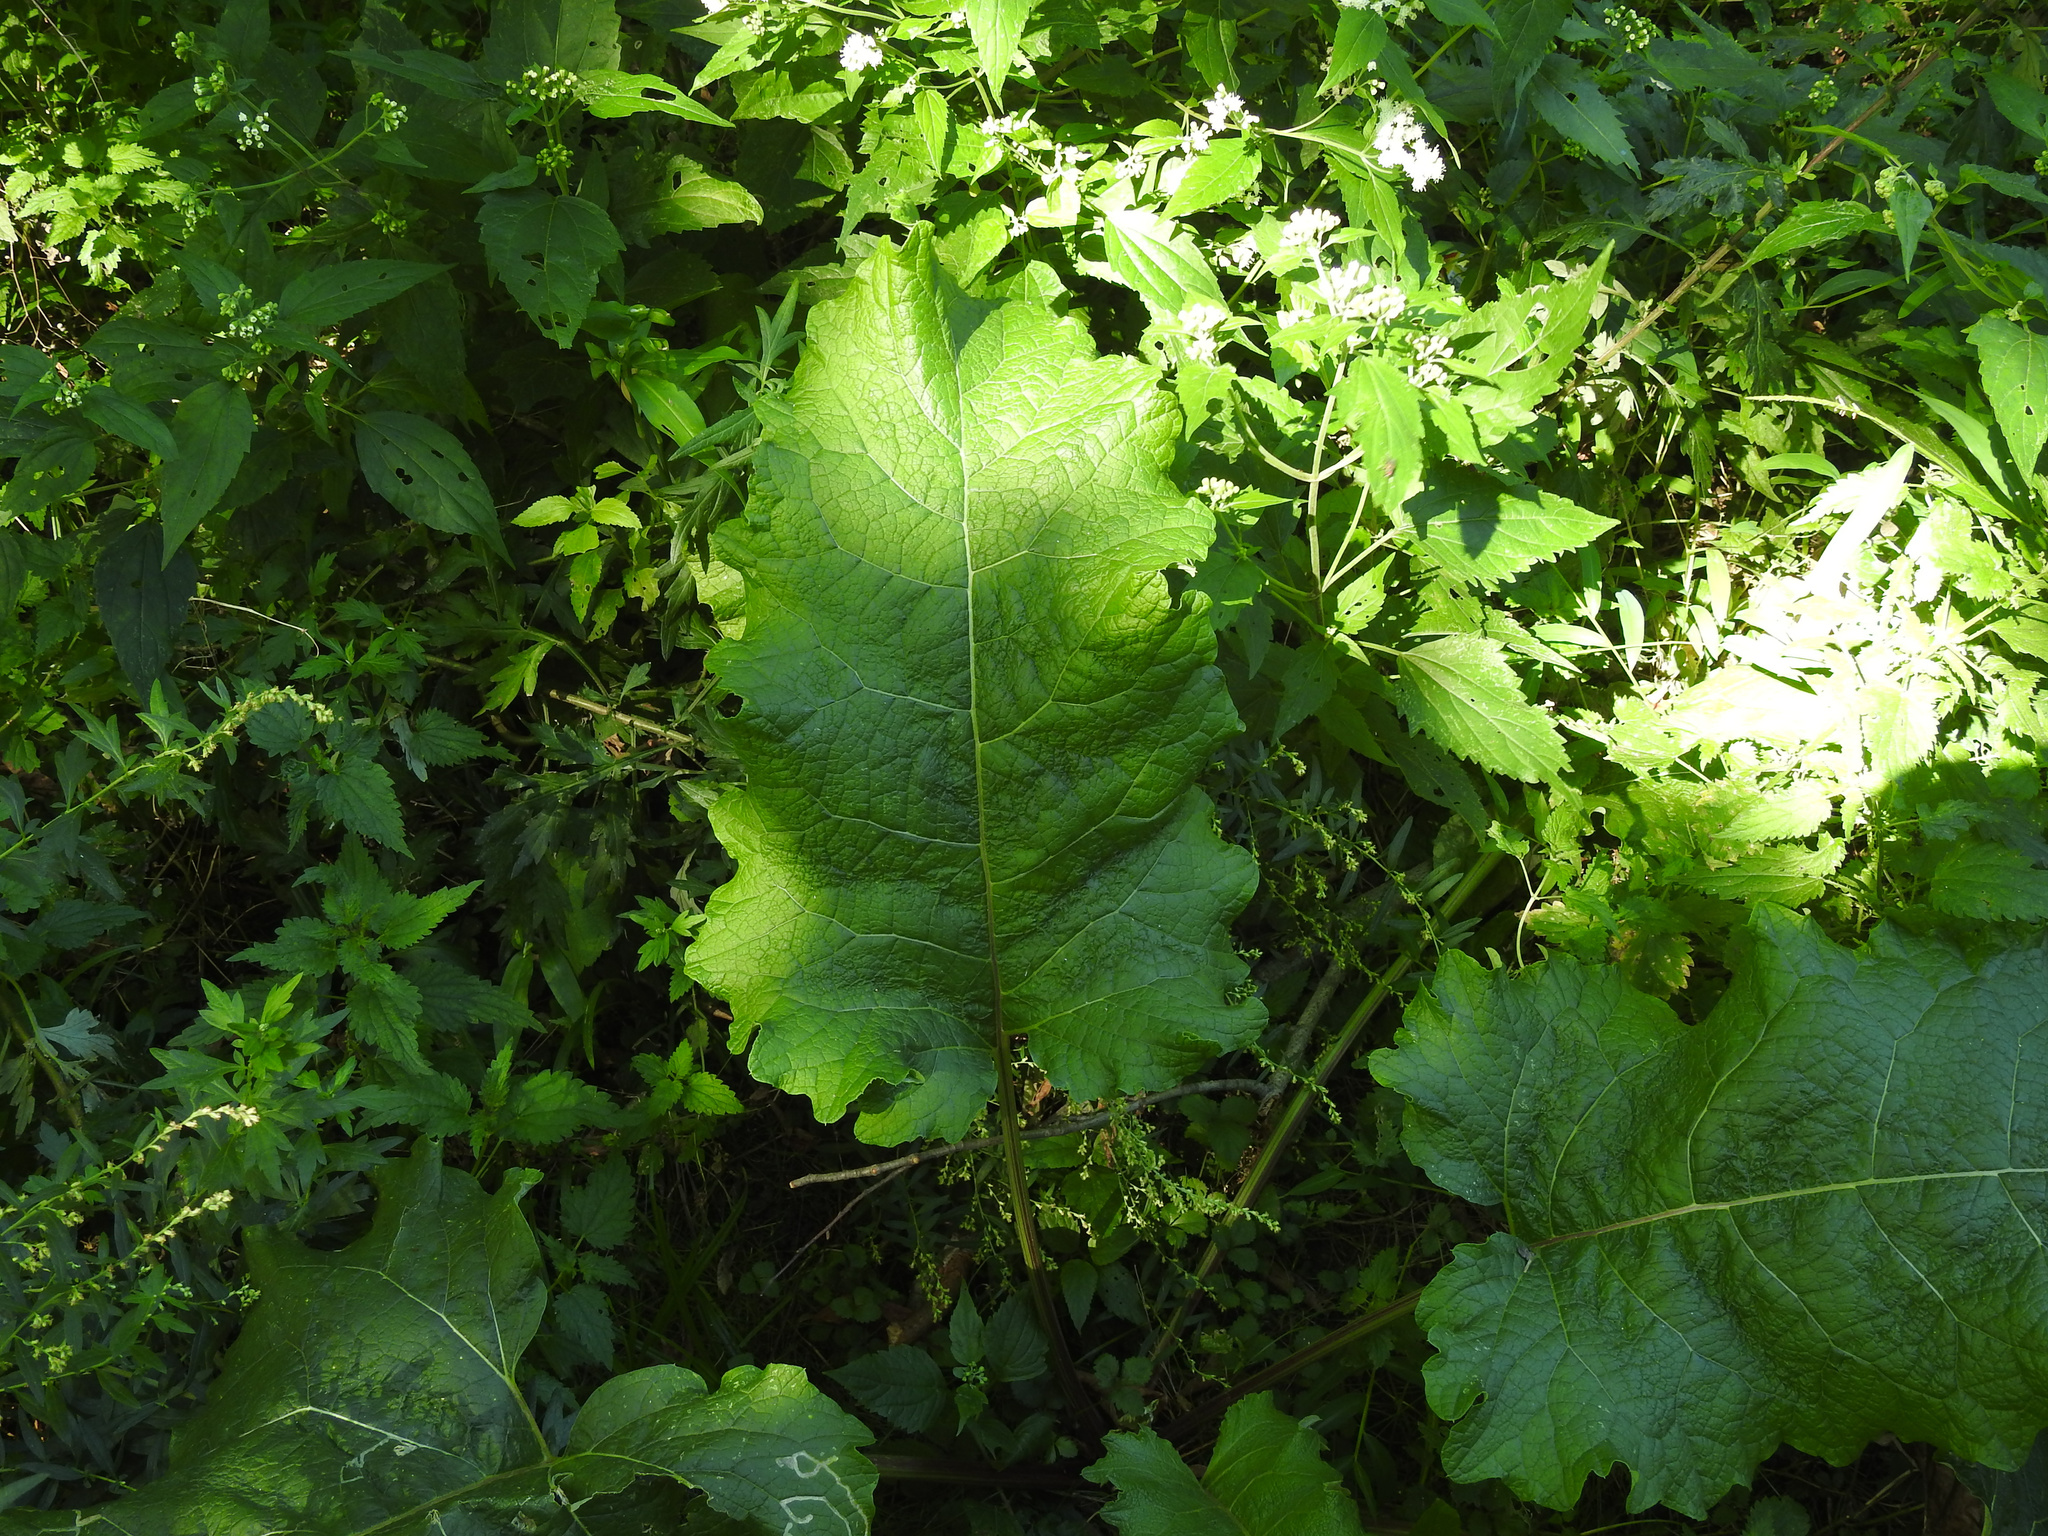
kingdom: Plantae
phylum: Tracheophyta
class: Magnoliopsida
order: Asterales
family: Asteraceae
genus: Arctium
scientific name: Arctium
